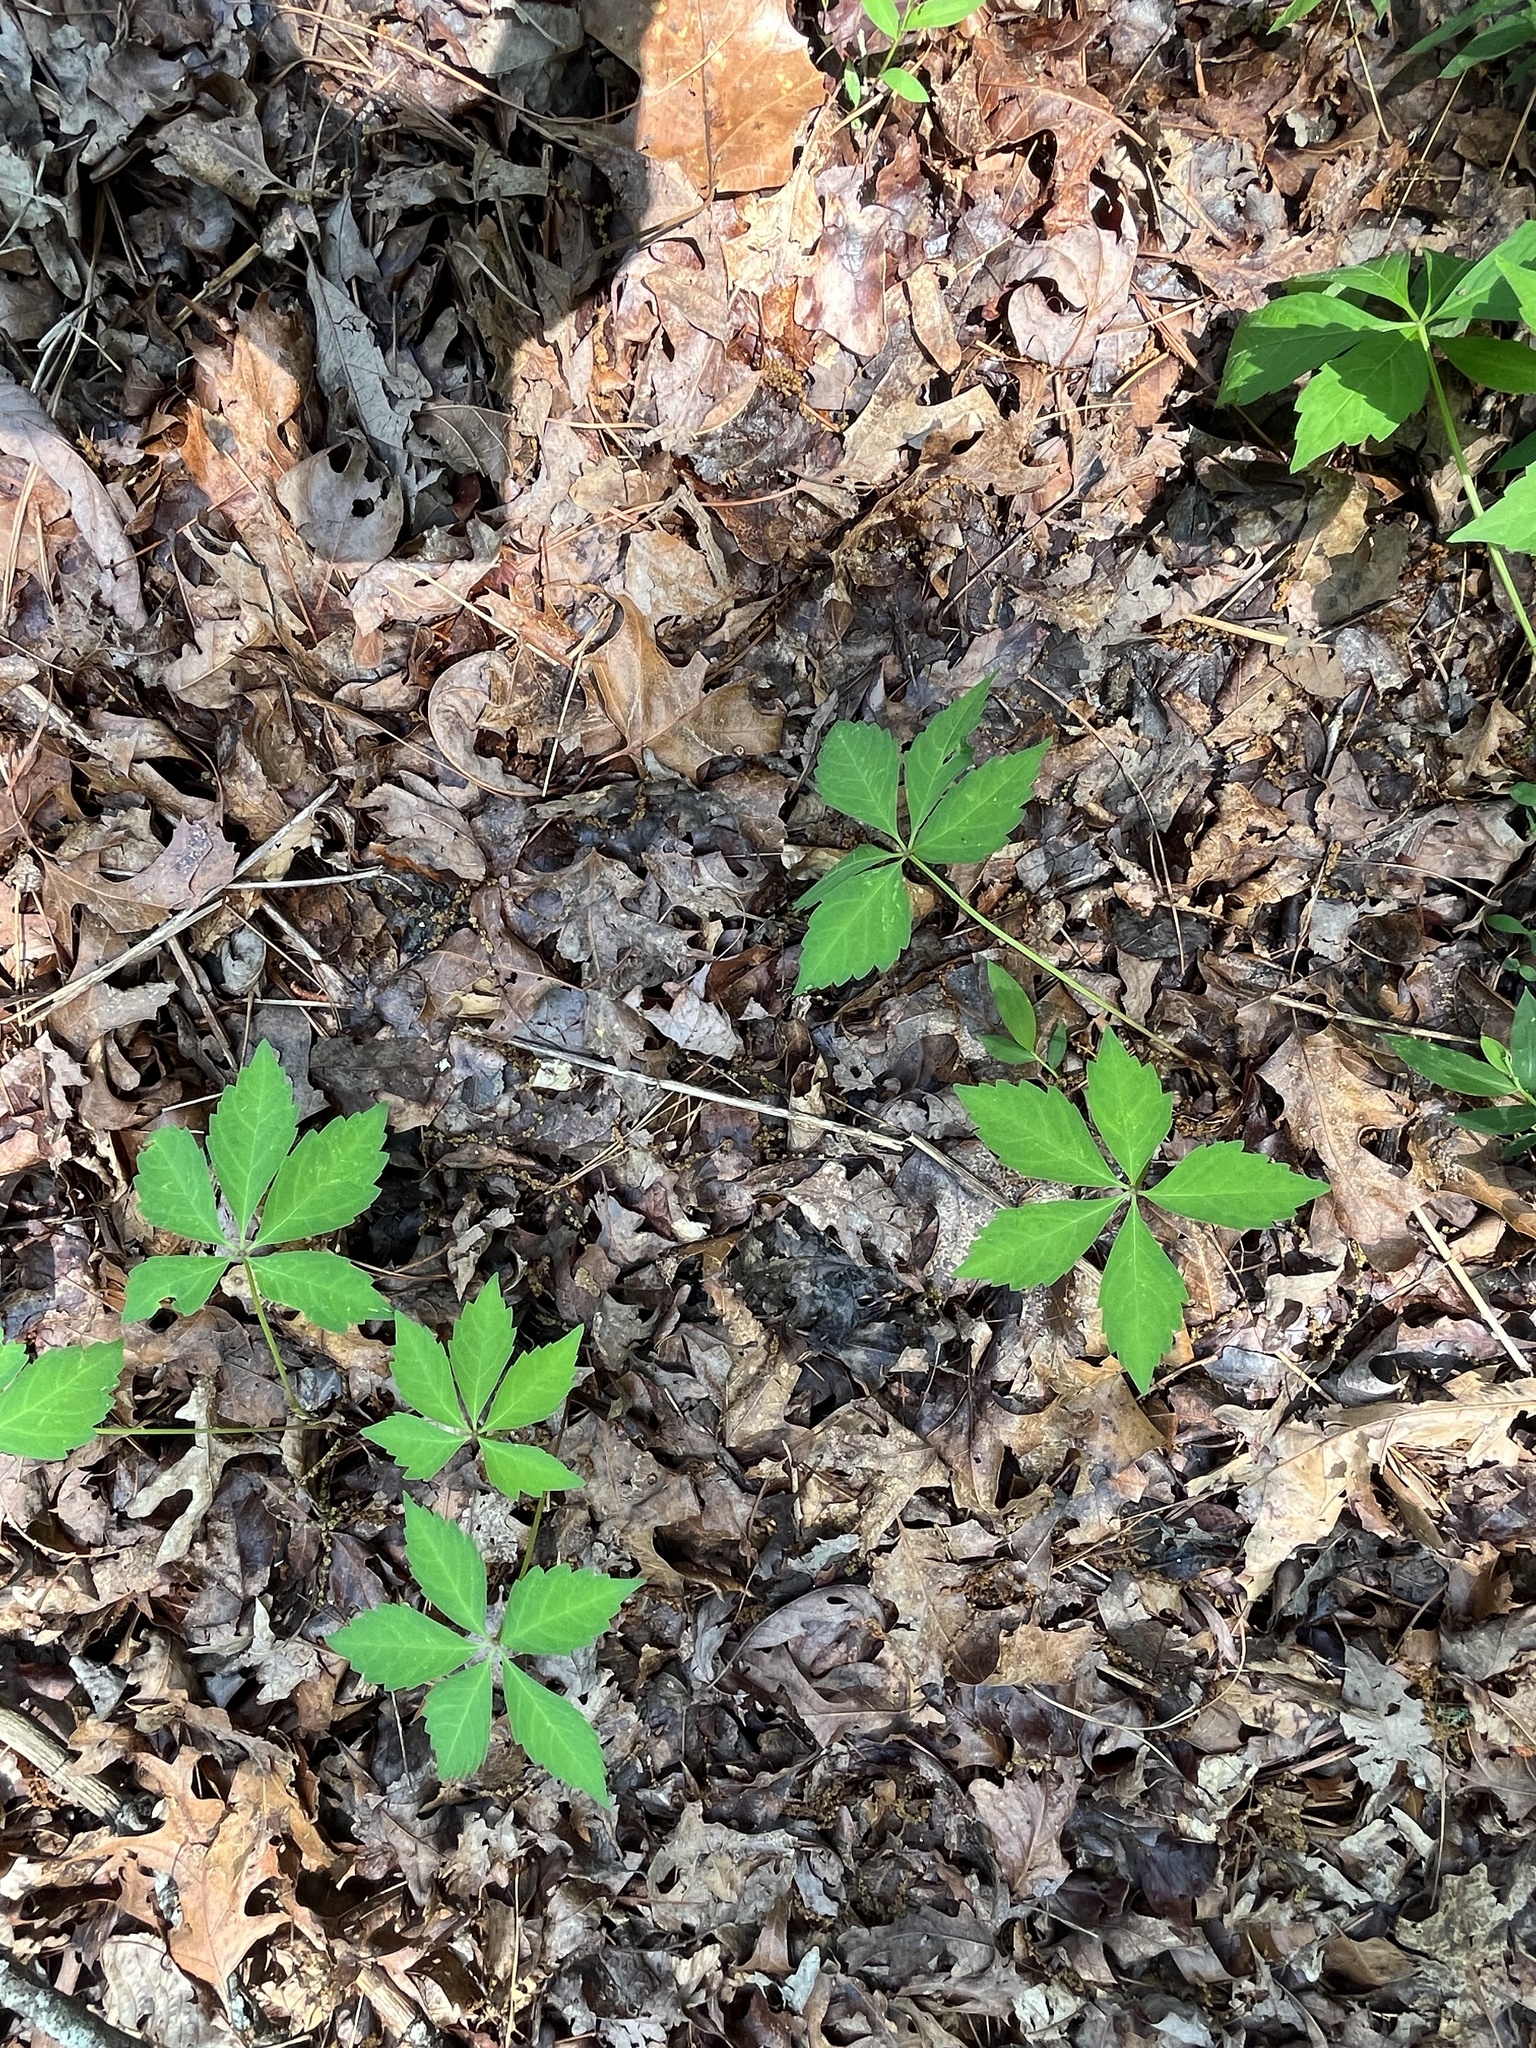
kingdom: Plantae
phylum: Tracheophyta
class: Magnoliopsida
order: Vitales
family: Vitaceae
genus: Parthenocissus
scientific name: Parthenocissus quinquefolia
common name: Virginia-creeper
